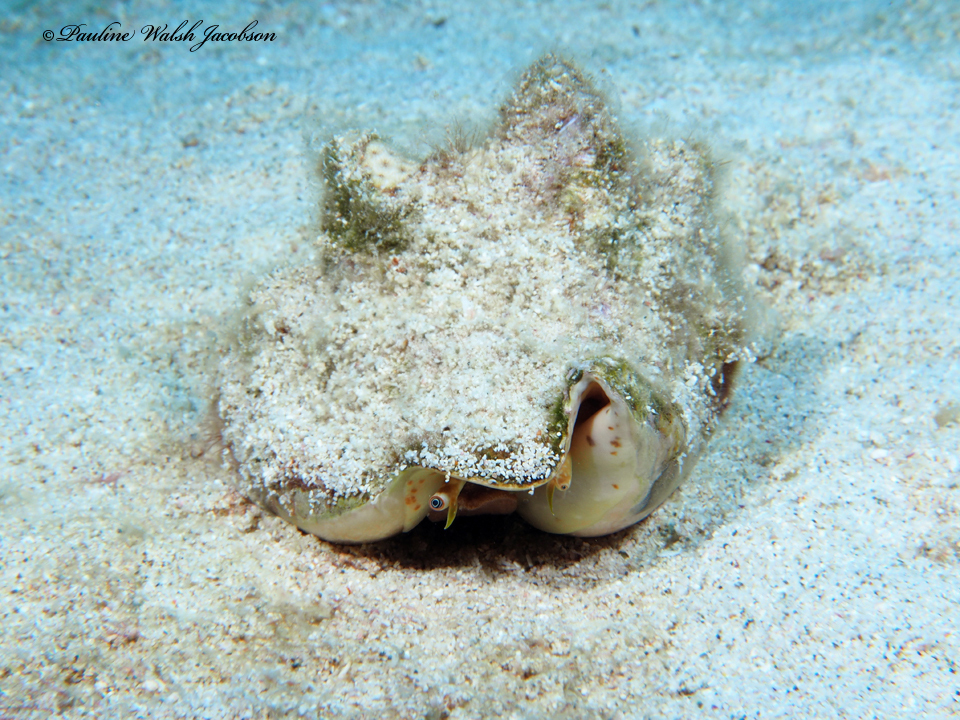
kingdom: Animalia
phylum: Mollusca
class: Gastropoda
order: Littorinimorpha
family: Strombidae
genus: Macrostrombus
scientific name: Macrostrombus costatus
